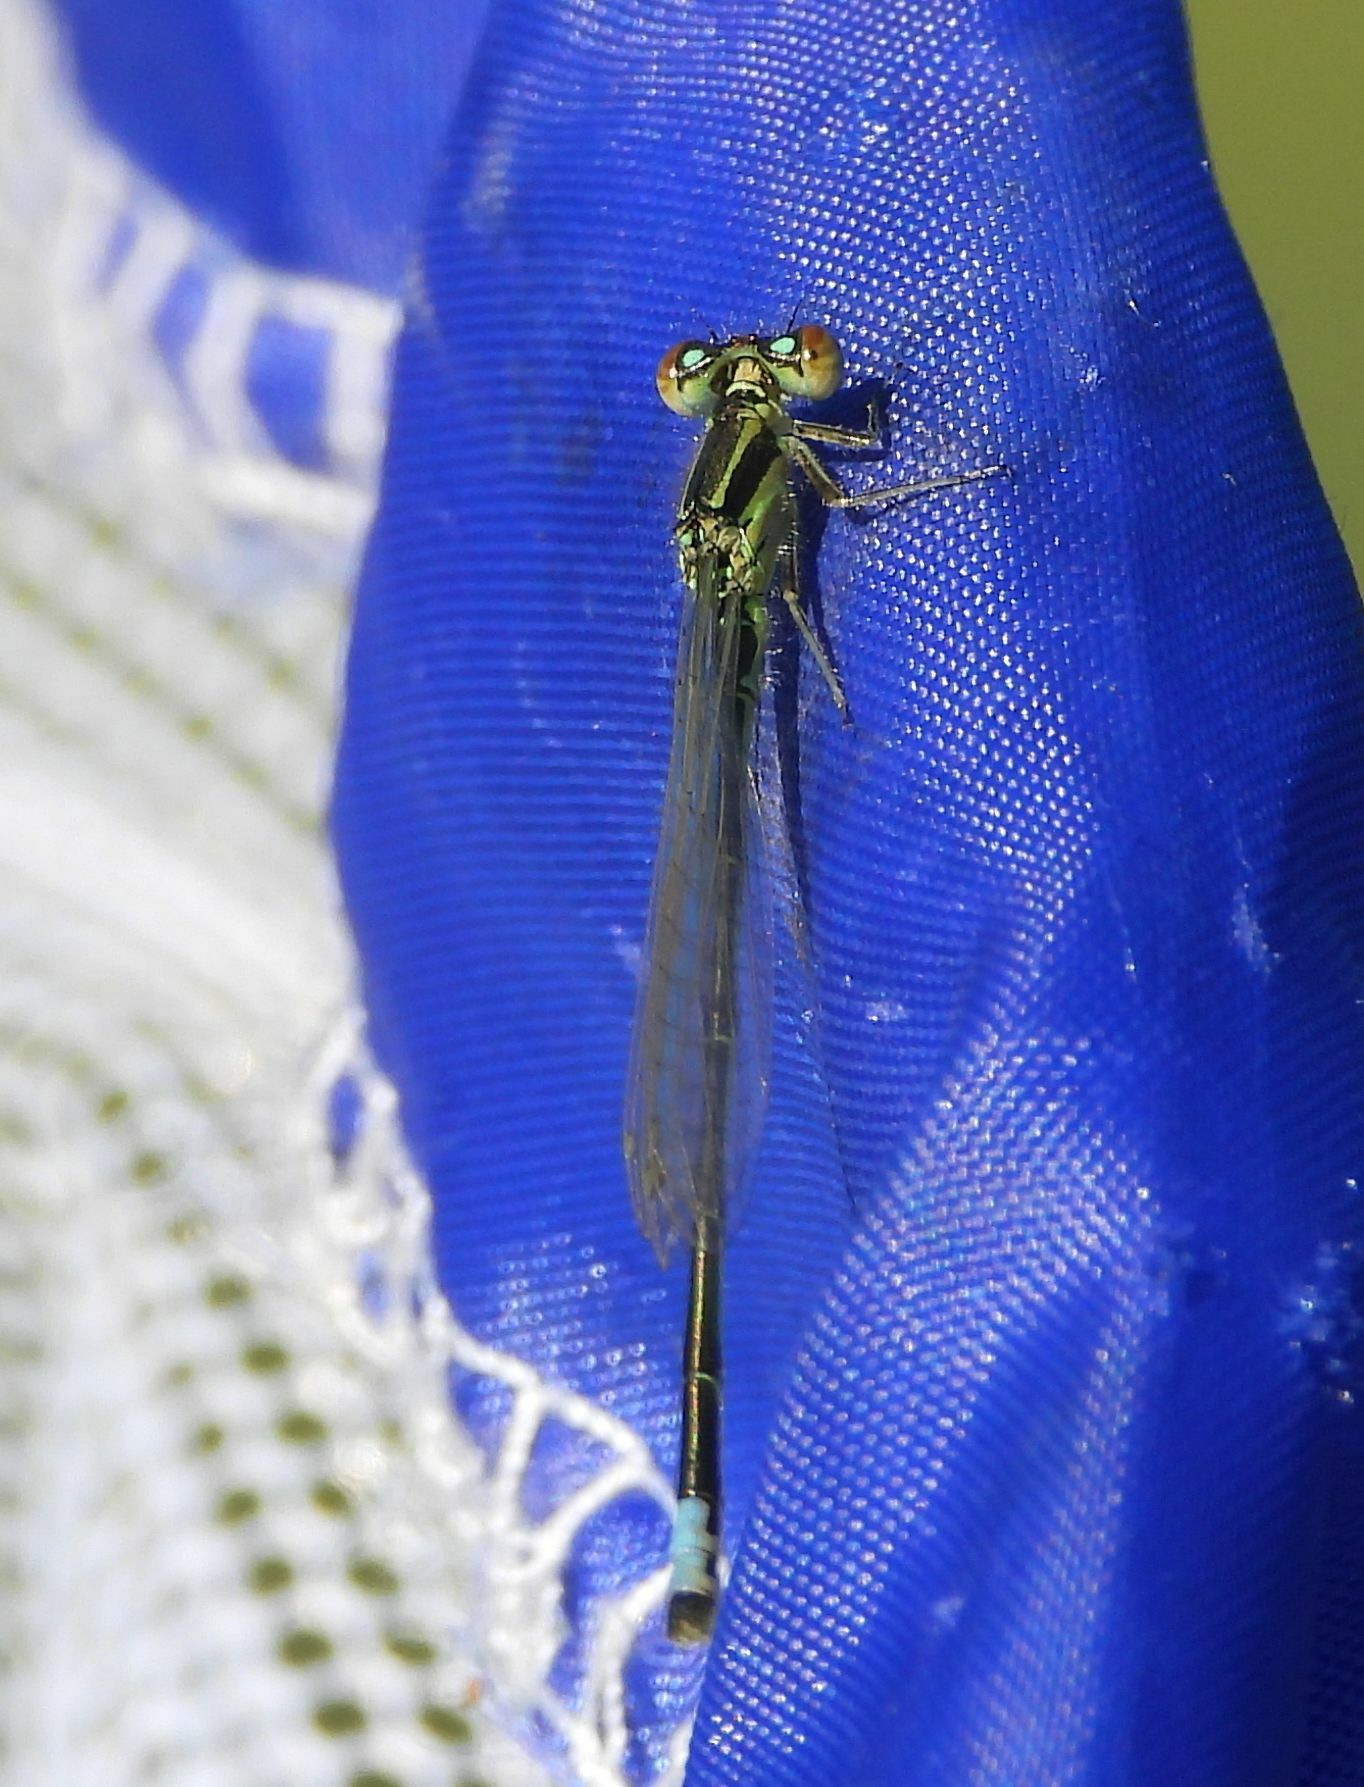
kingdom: Animalia
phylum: Arthropoda
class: Insecta
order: Odonata
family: Coenagrionidae
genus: Ischnura
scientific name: Ischnura verticalis
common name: Eastern forktail
